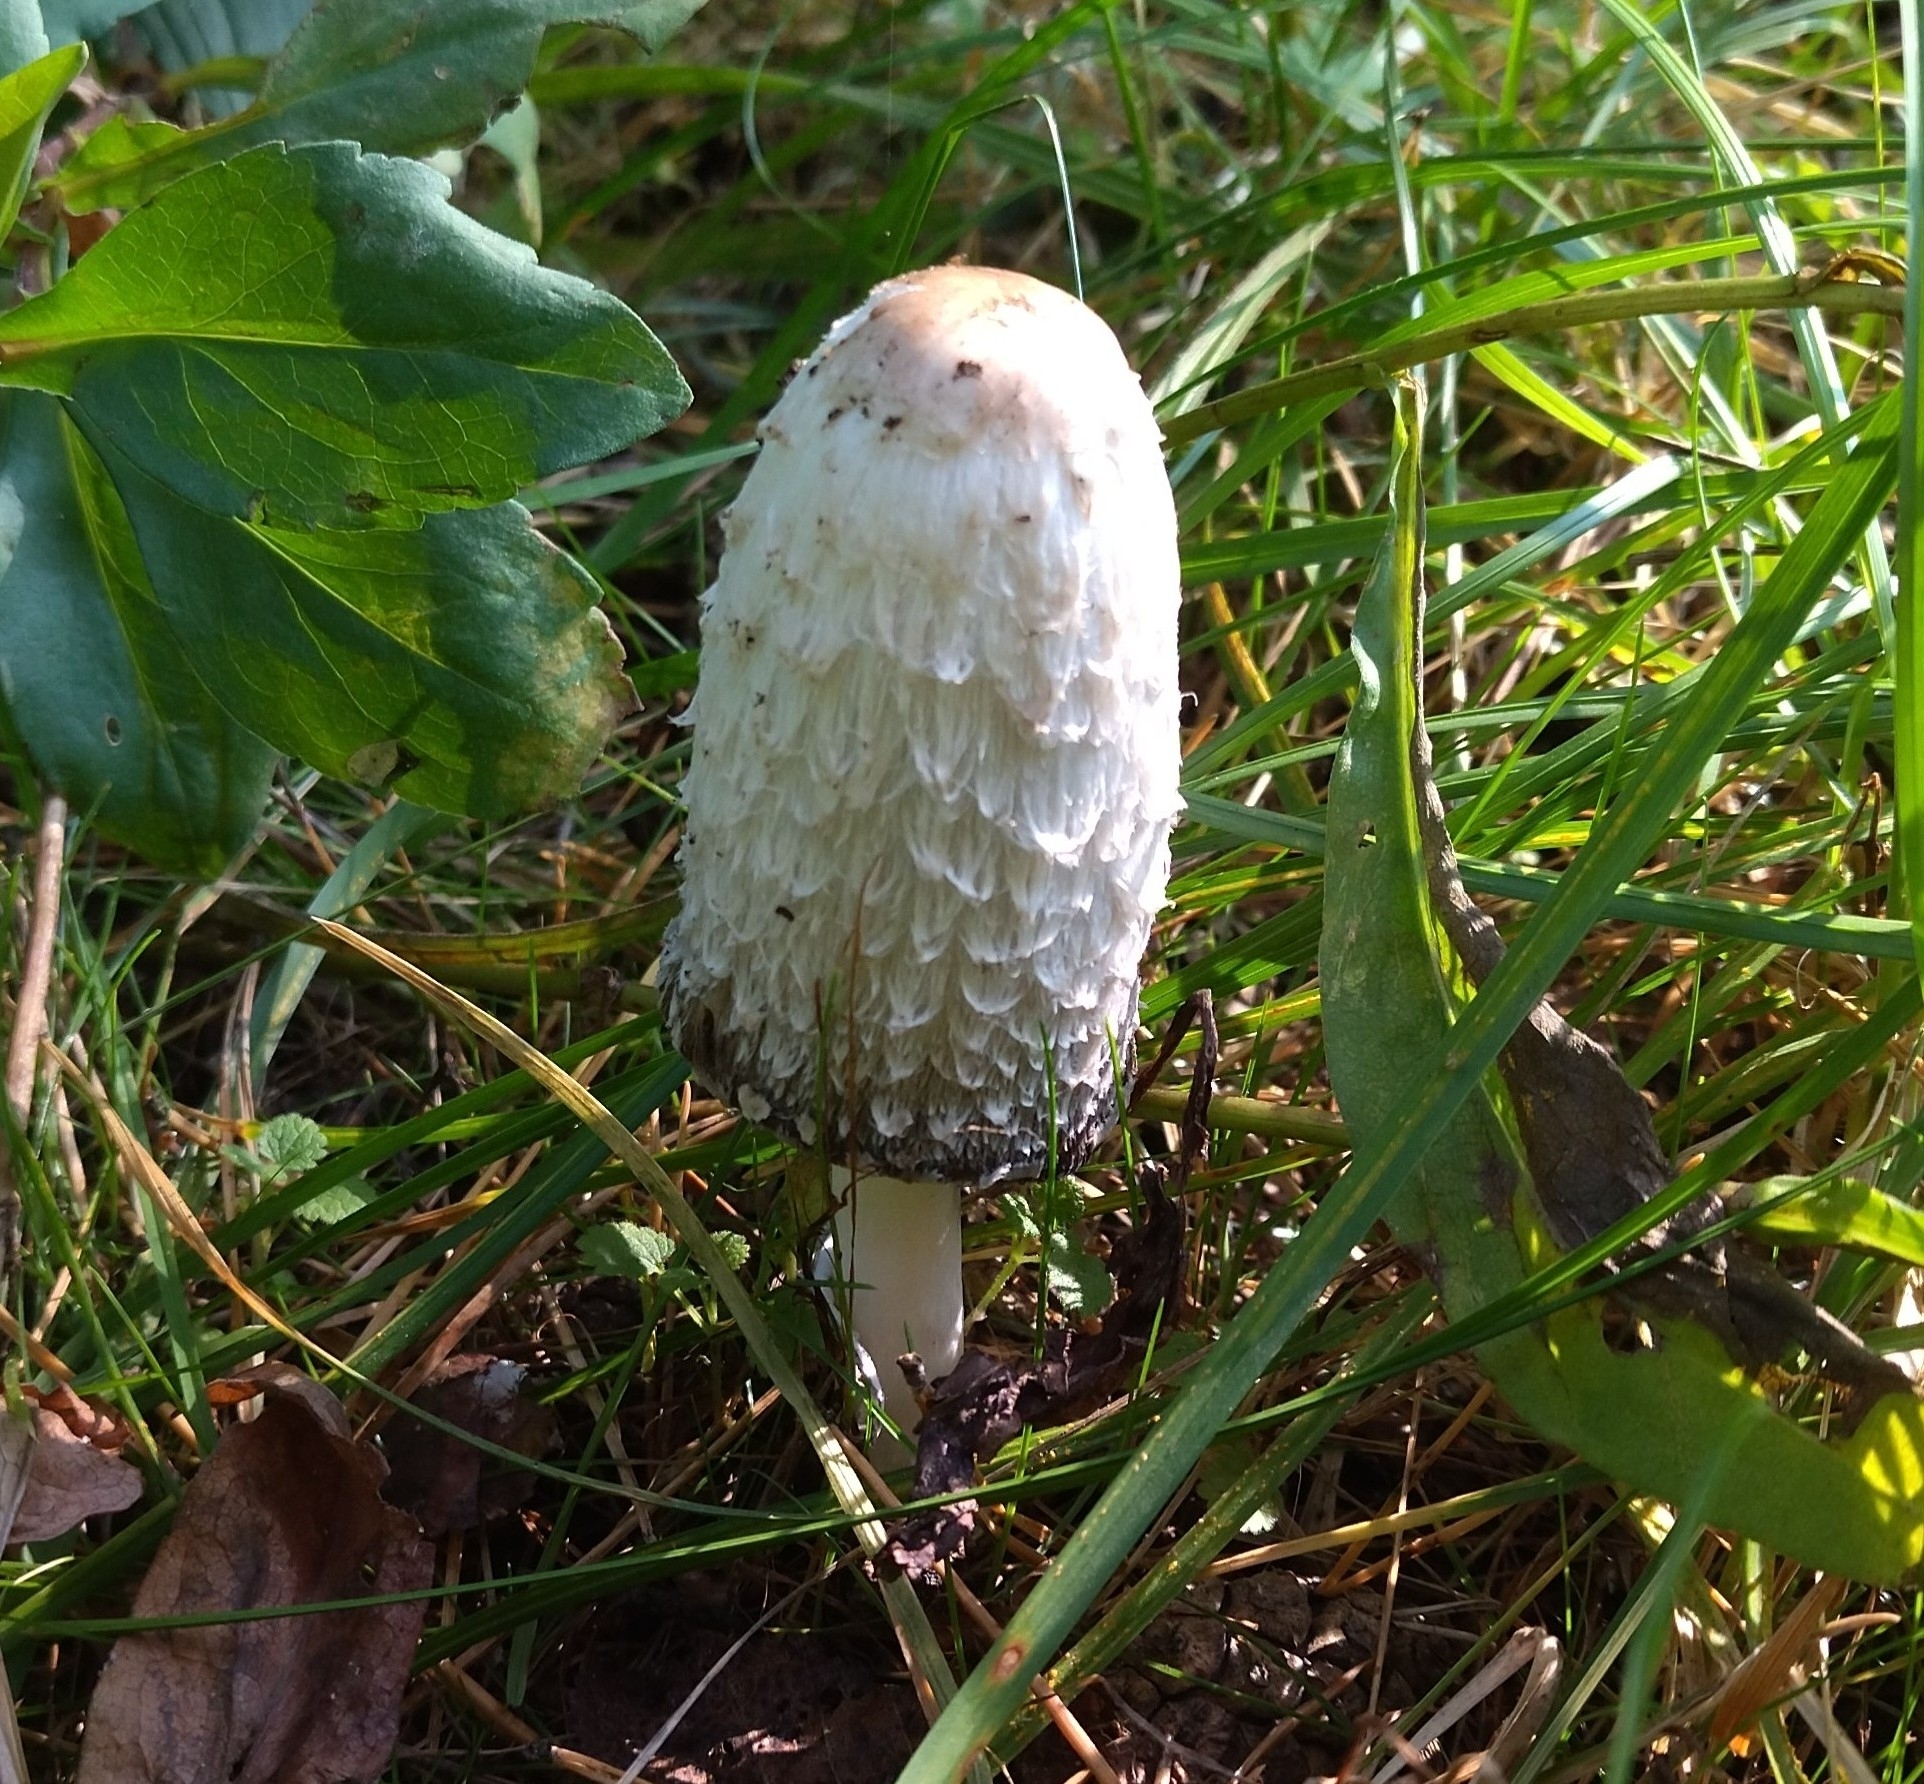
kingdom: Fungi
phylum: Basidiomycota
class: Agaricomycetes
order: Agaricales
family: Agaricaceae
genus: Coprinus
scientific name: Coprinus comatus
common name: Lawyer's wig
